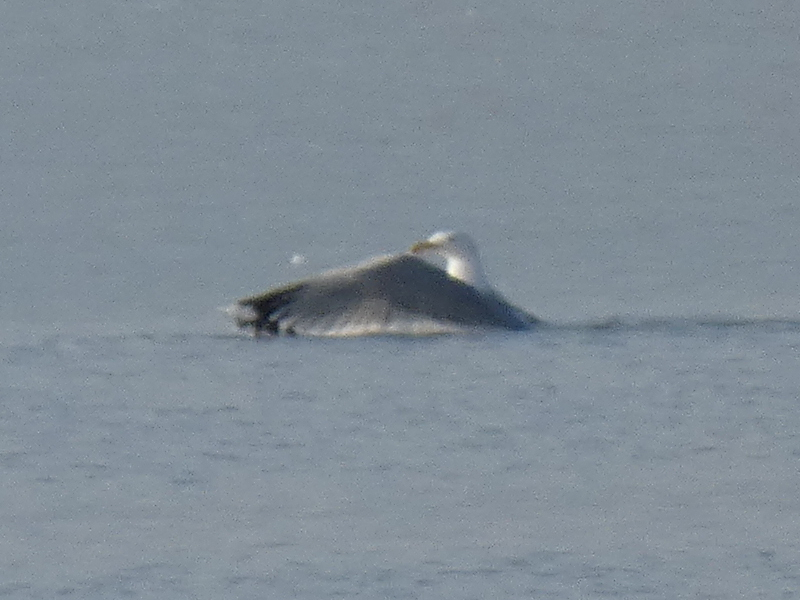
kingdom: Animalia
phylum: Chordata
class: Aves
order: Charadriiformes
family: Laridae
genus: Larus
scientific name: Larus cachinnans
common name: Caspian gull
